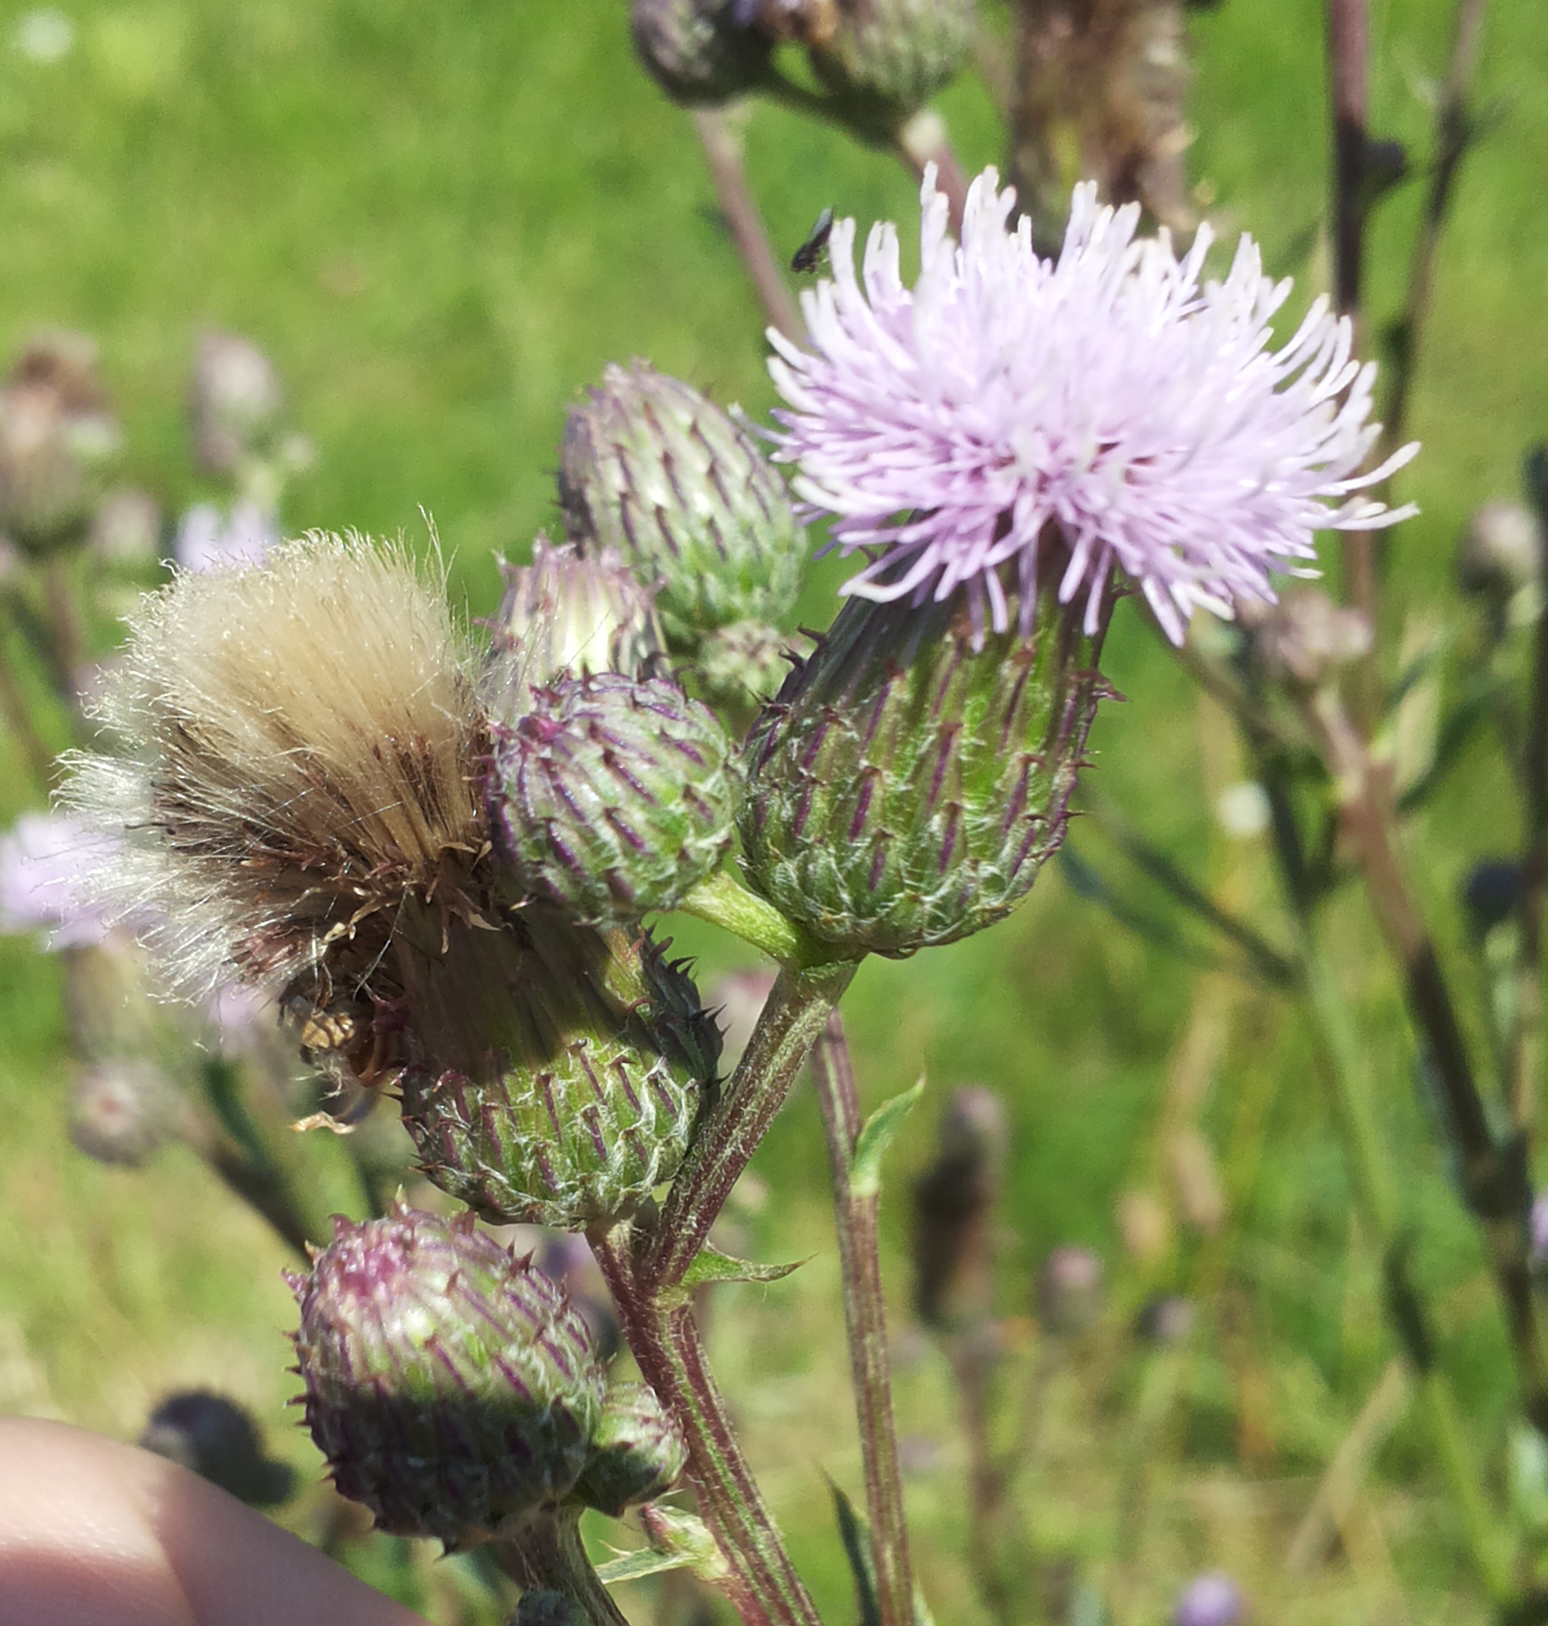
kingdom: Plantae
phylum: Tracheophyta
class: Magnoliopsida
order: Asterales
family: Asteraceae
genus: Cirsium
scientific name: Cirsium arvense
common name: Creeping thistle
